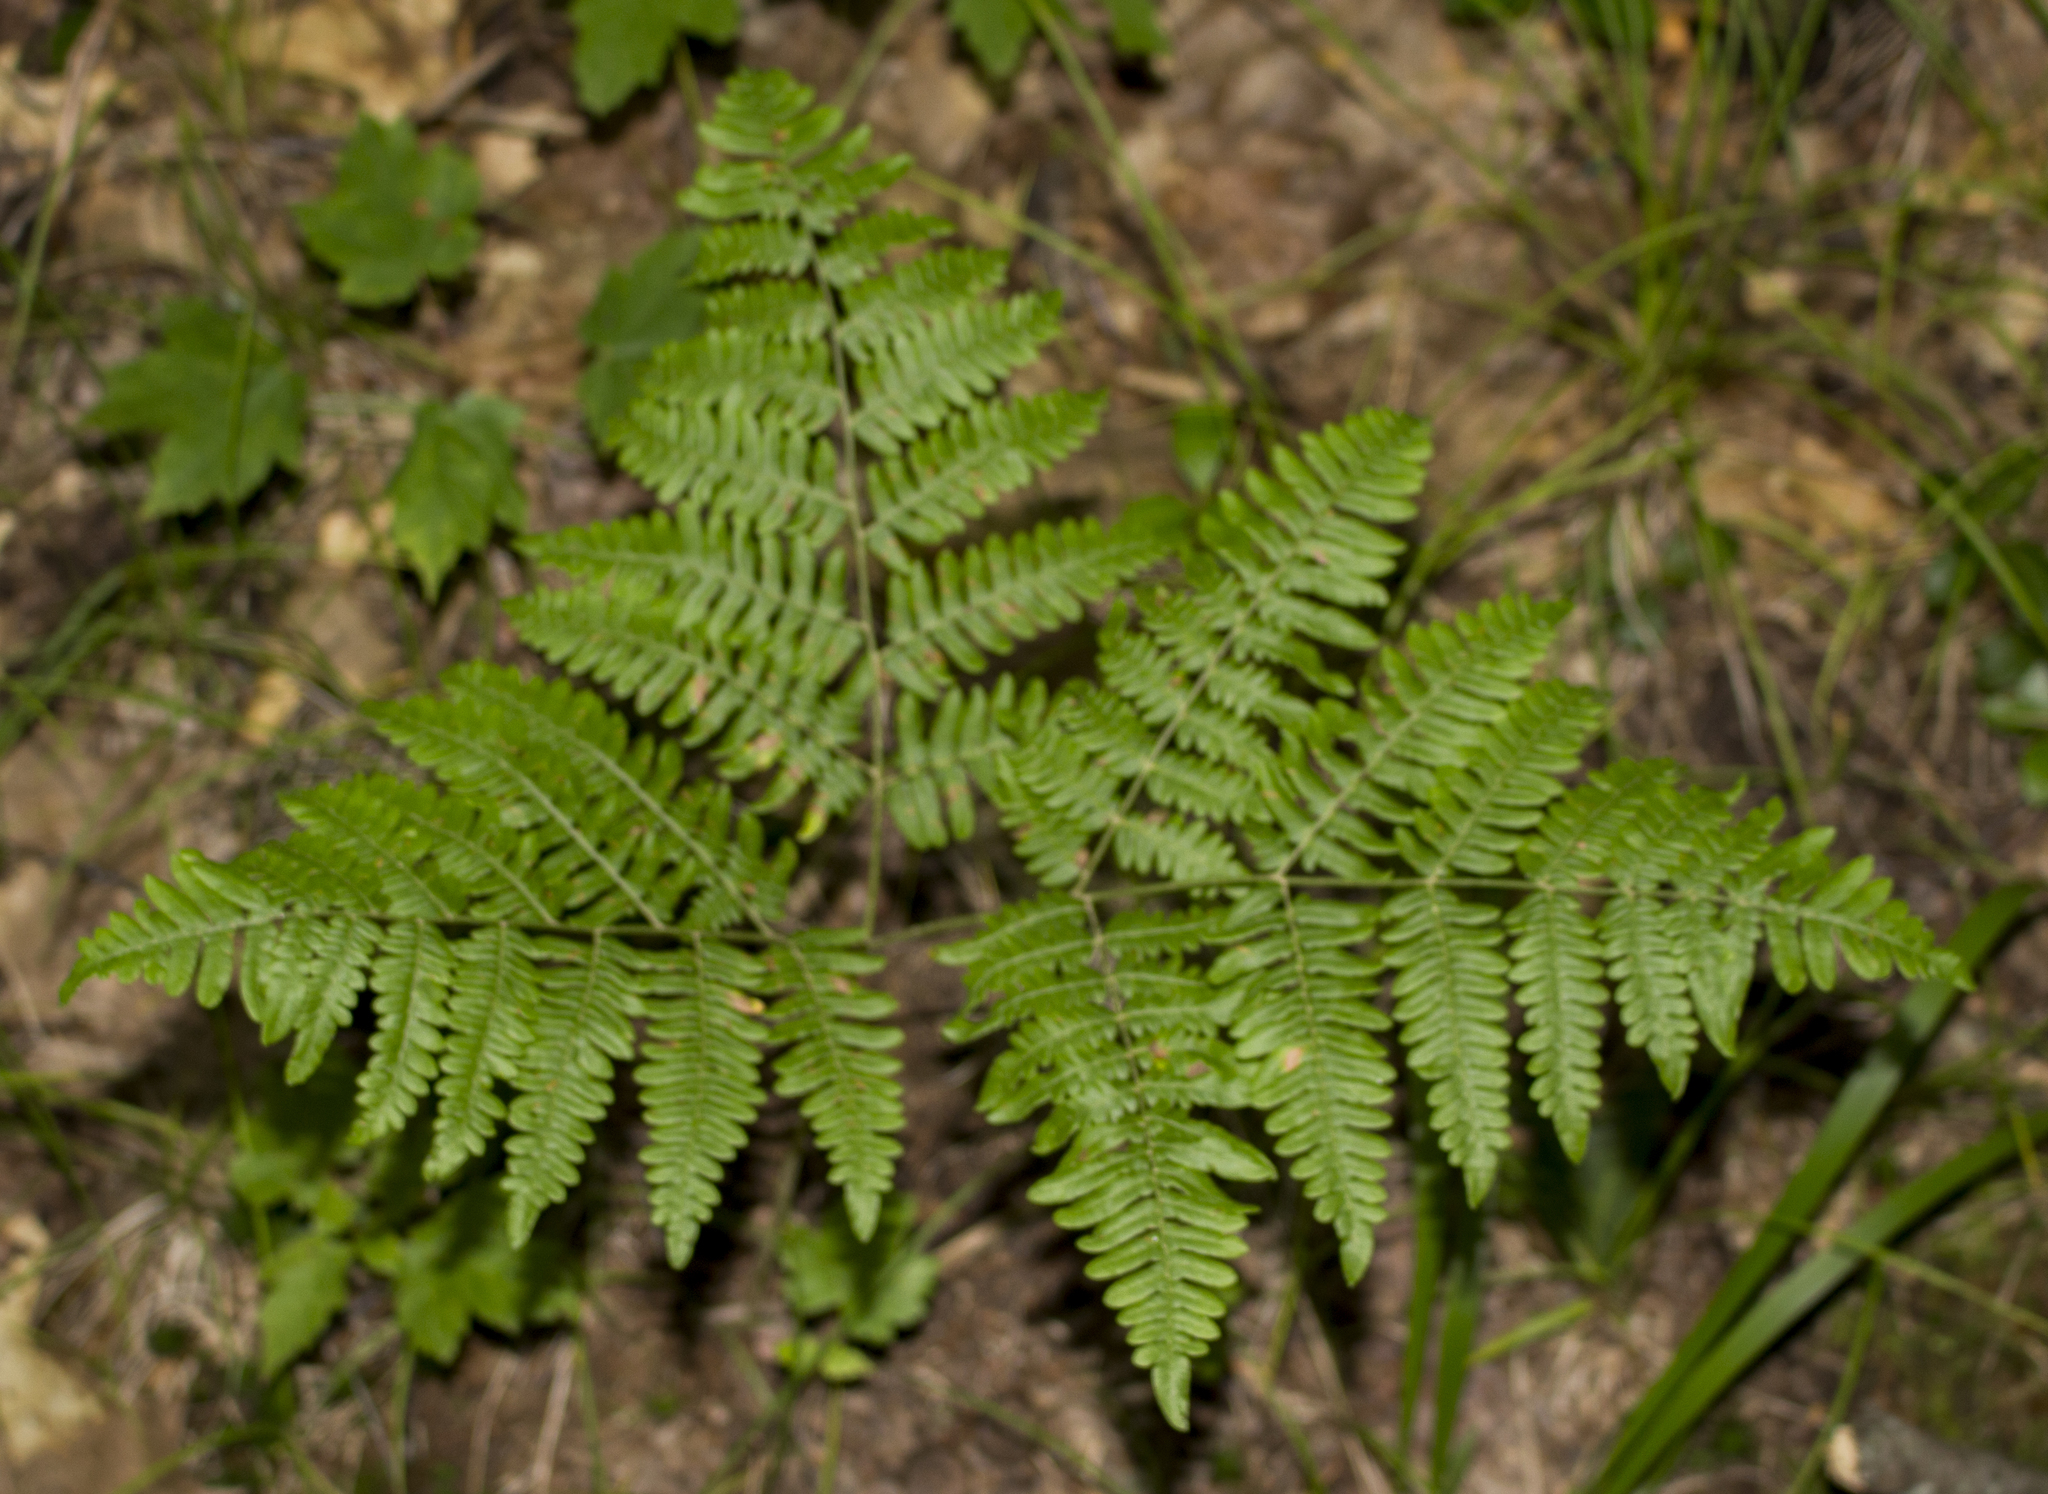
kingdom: Plantae
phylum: Tracheophyta
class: Polypodiopsida
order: Polypodiales
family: Dennstaedtiaceae
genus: Pteridium
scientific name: Pteridium aquilinum
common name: Bracken
